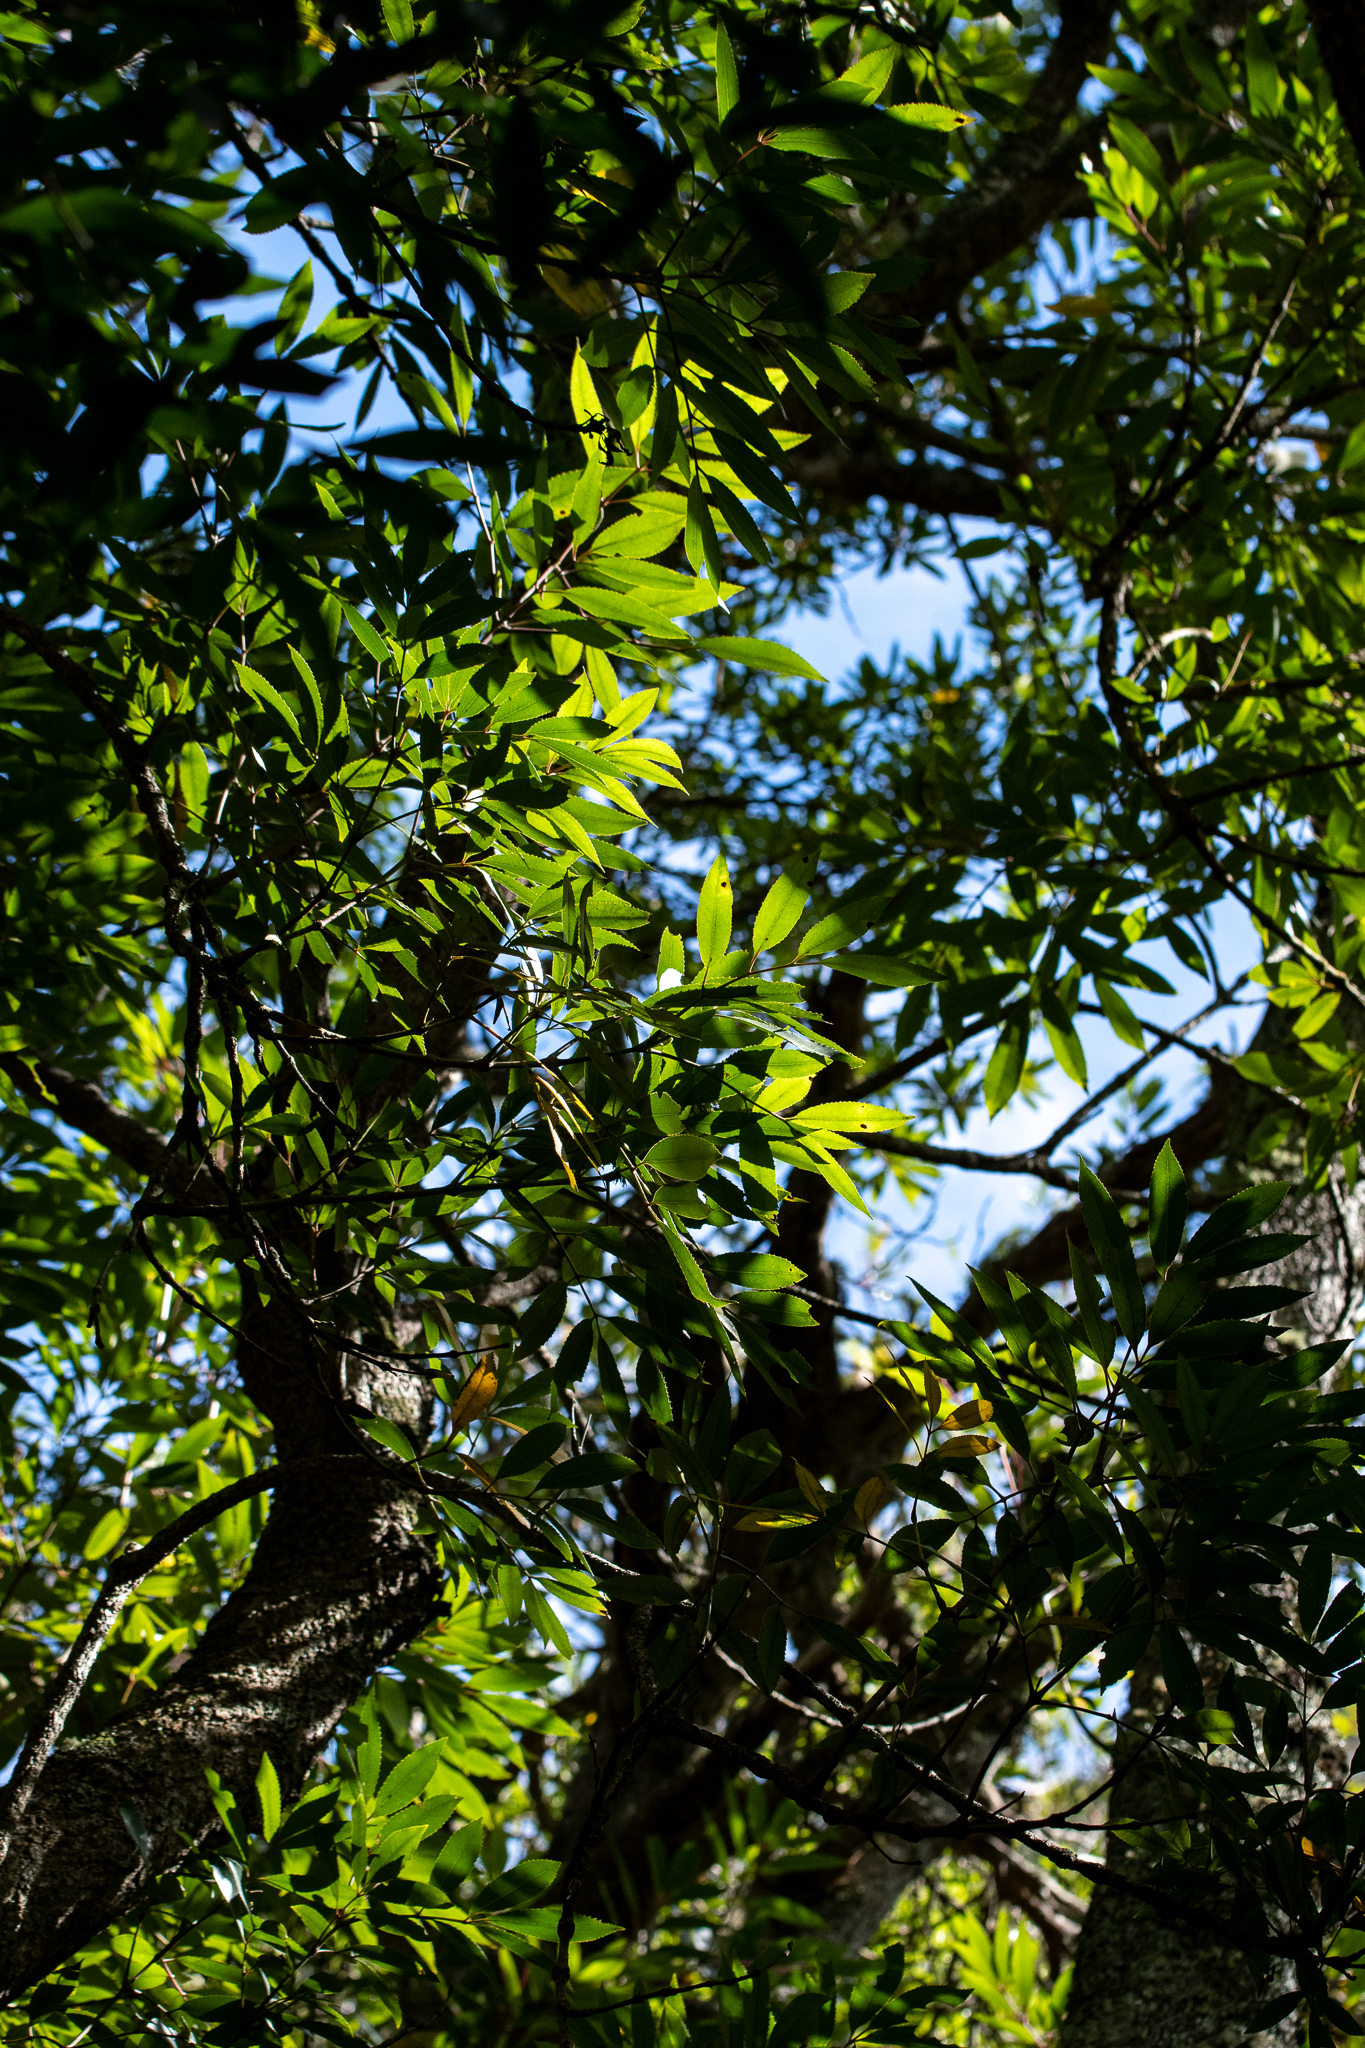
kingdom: Plantae
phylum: Tracheophyta
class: Magnoliopsida
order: Oxalidales
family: Cunoniaceae
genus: Cunonia
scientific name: Cunonia capensis
